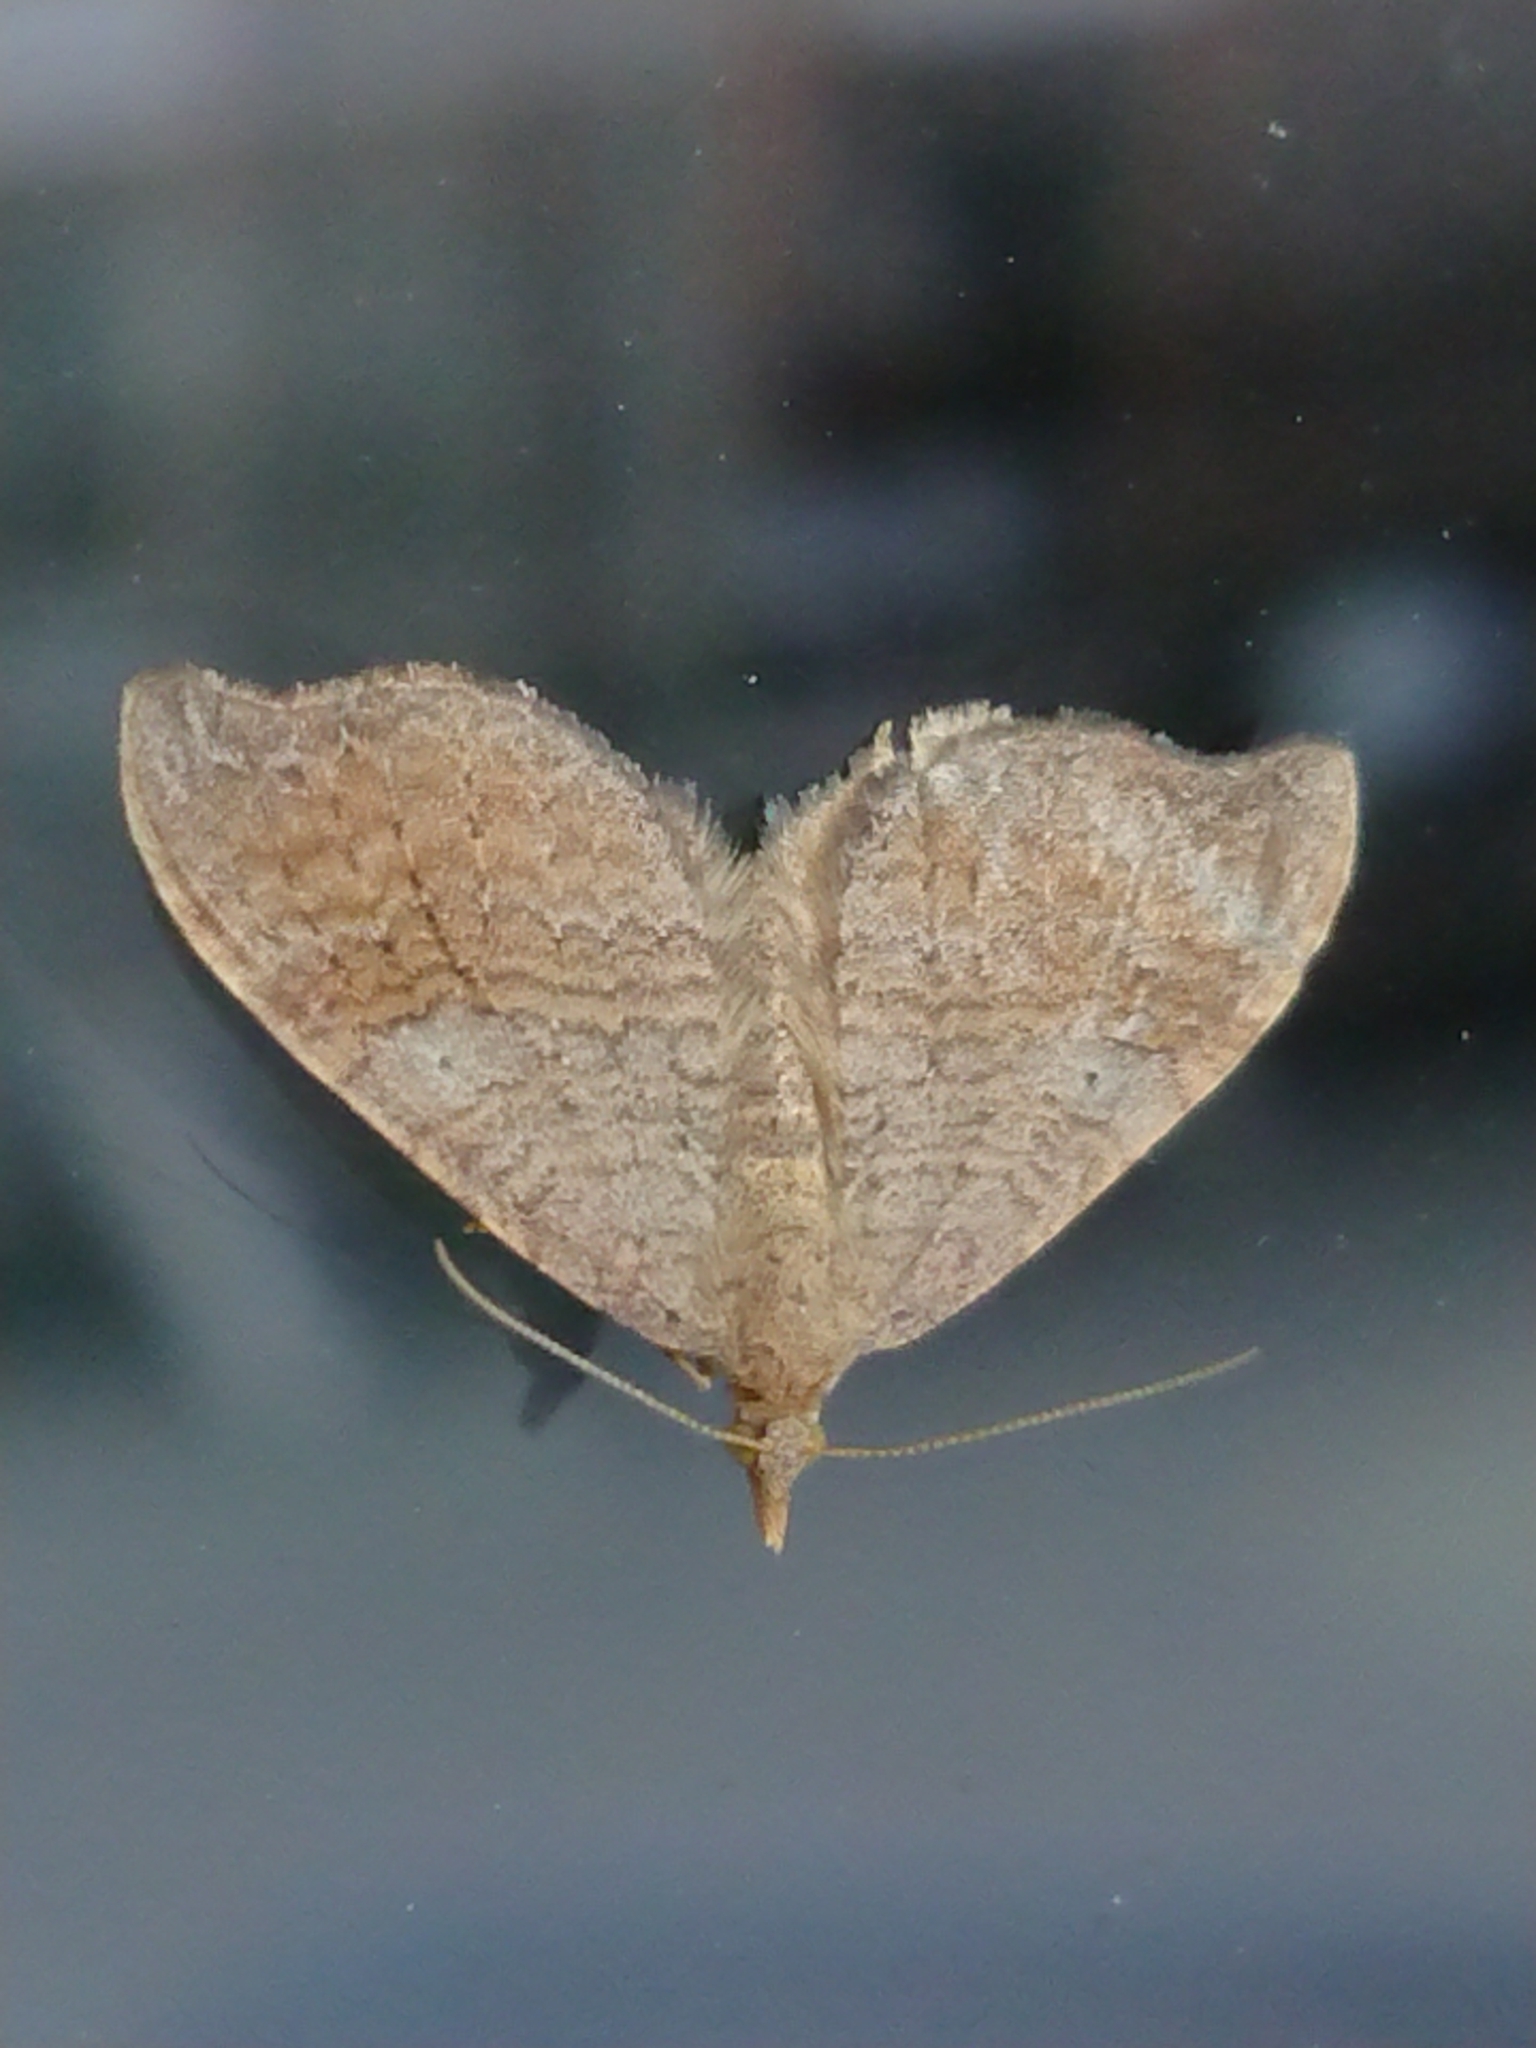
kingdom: Animalia
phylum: Arthropoda
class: Insecta
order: Lepidoptera
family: Geometridae
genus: Homodotis
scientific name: Homodotis megaspilata
